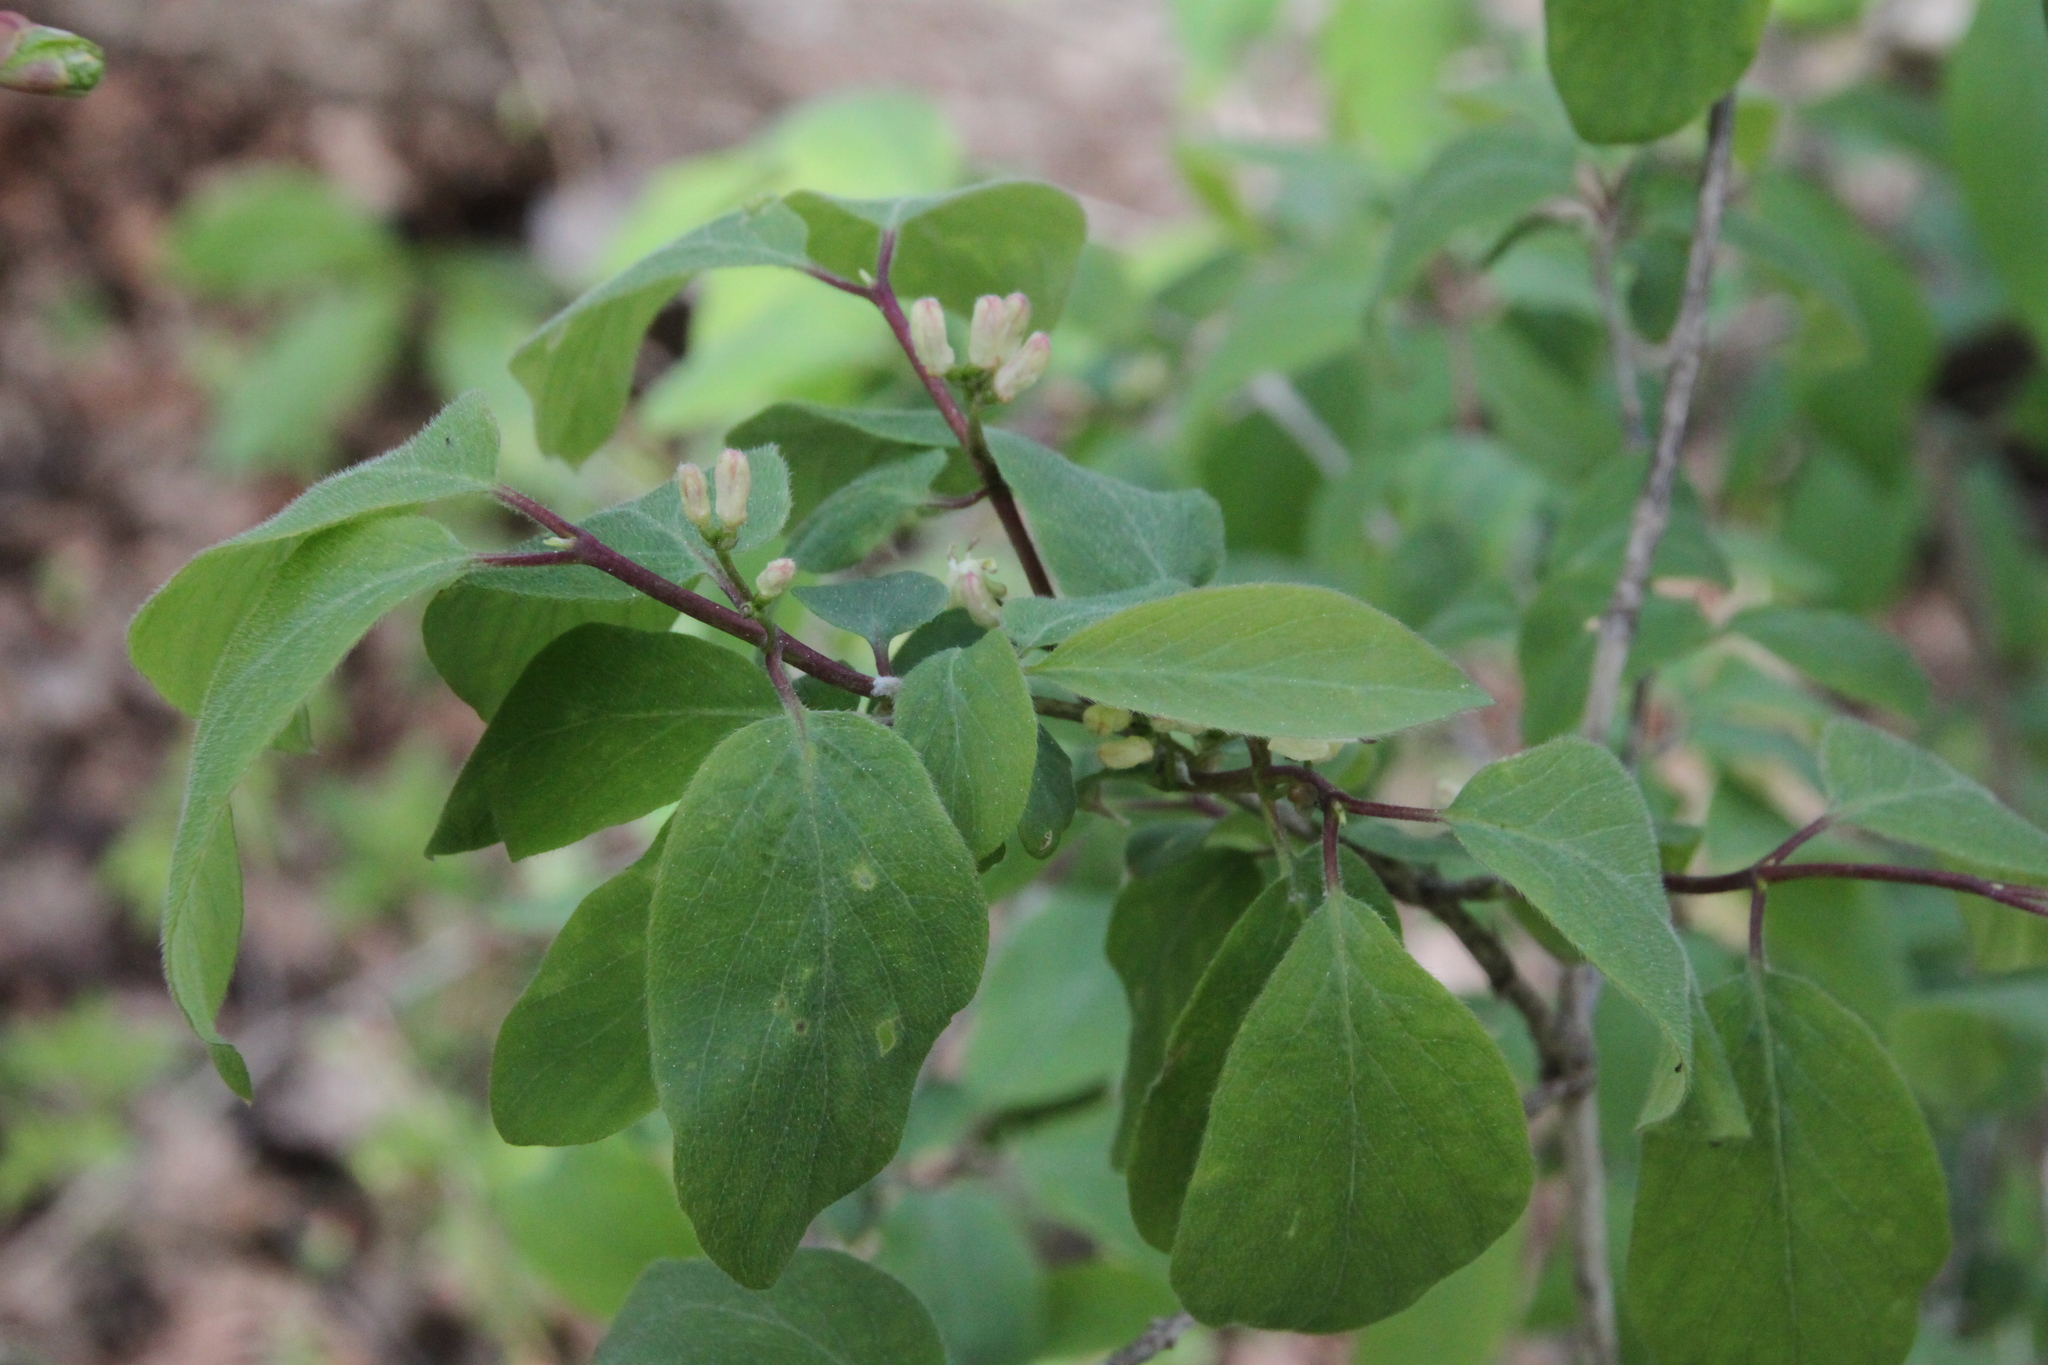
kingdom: Plantae
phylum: Tracheophyta
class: Magnoliopsida
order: Dipsacales
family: Caprifoliaceae
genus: Lonicera
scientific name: Lonicera xylosteum
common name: Fly honeysuckle
